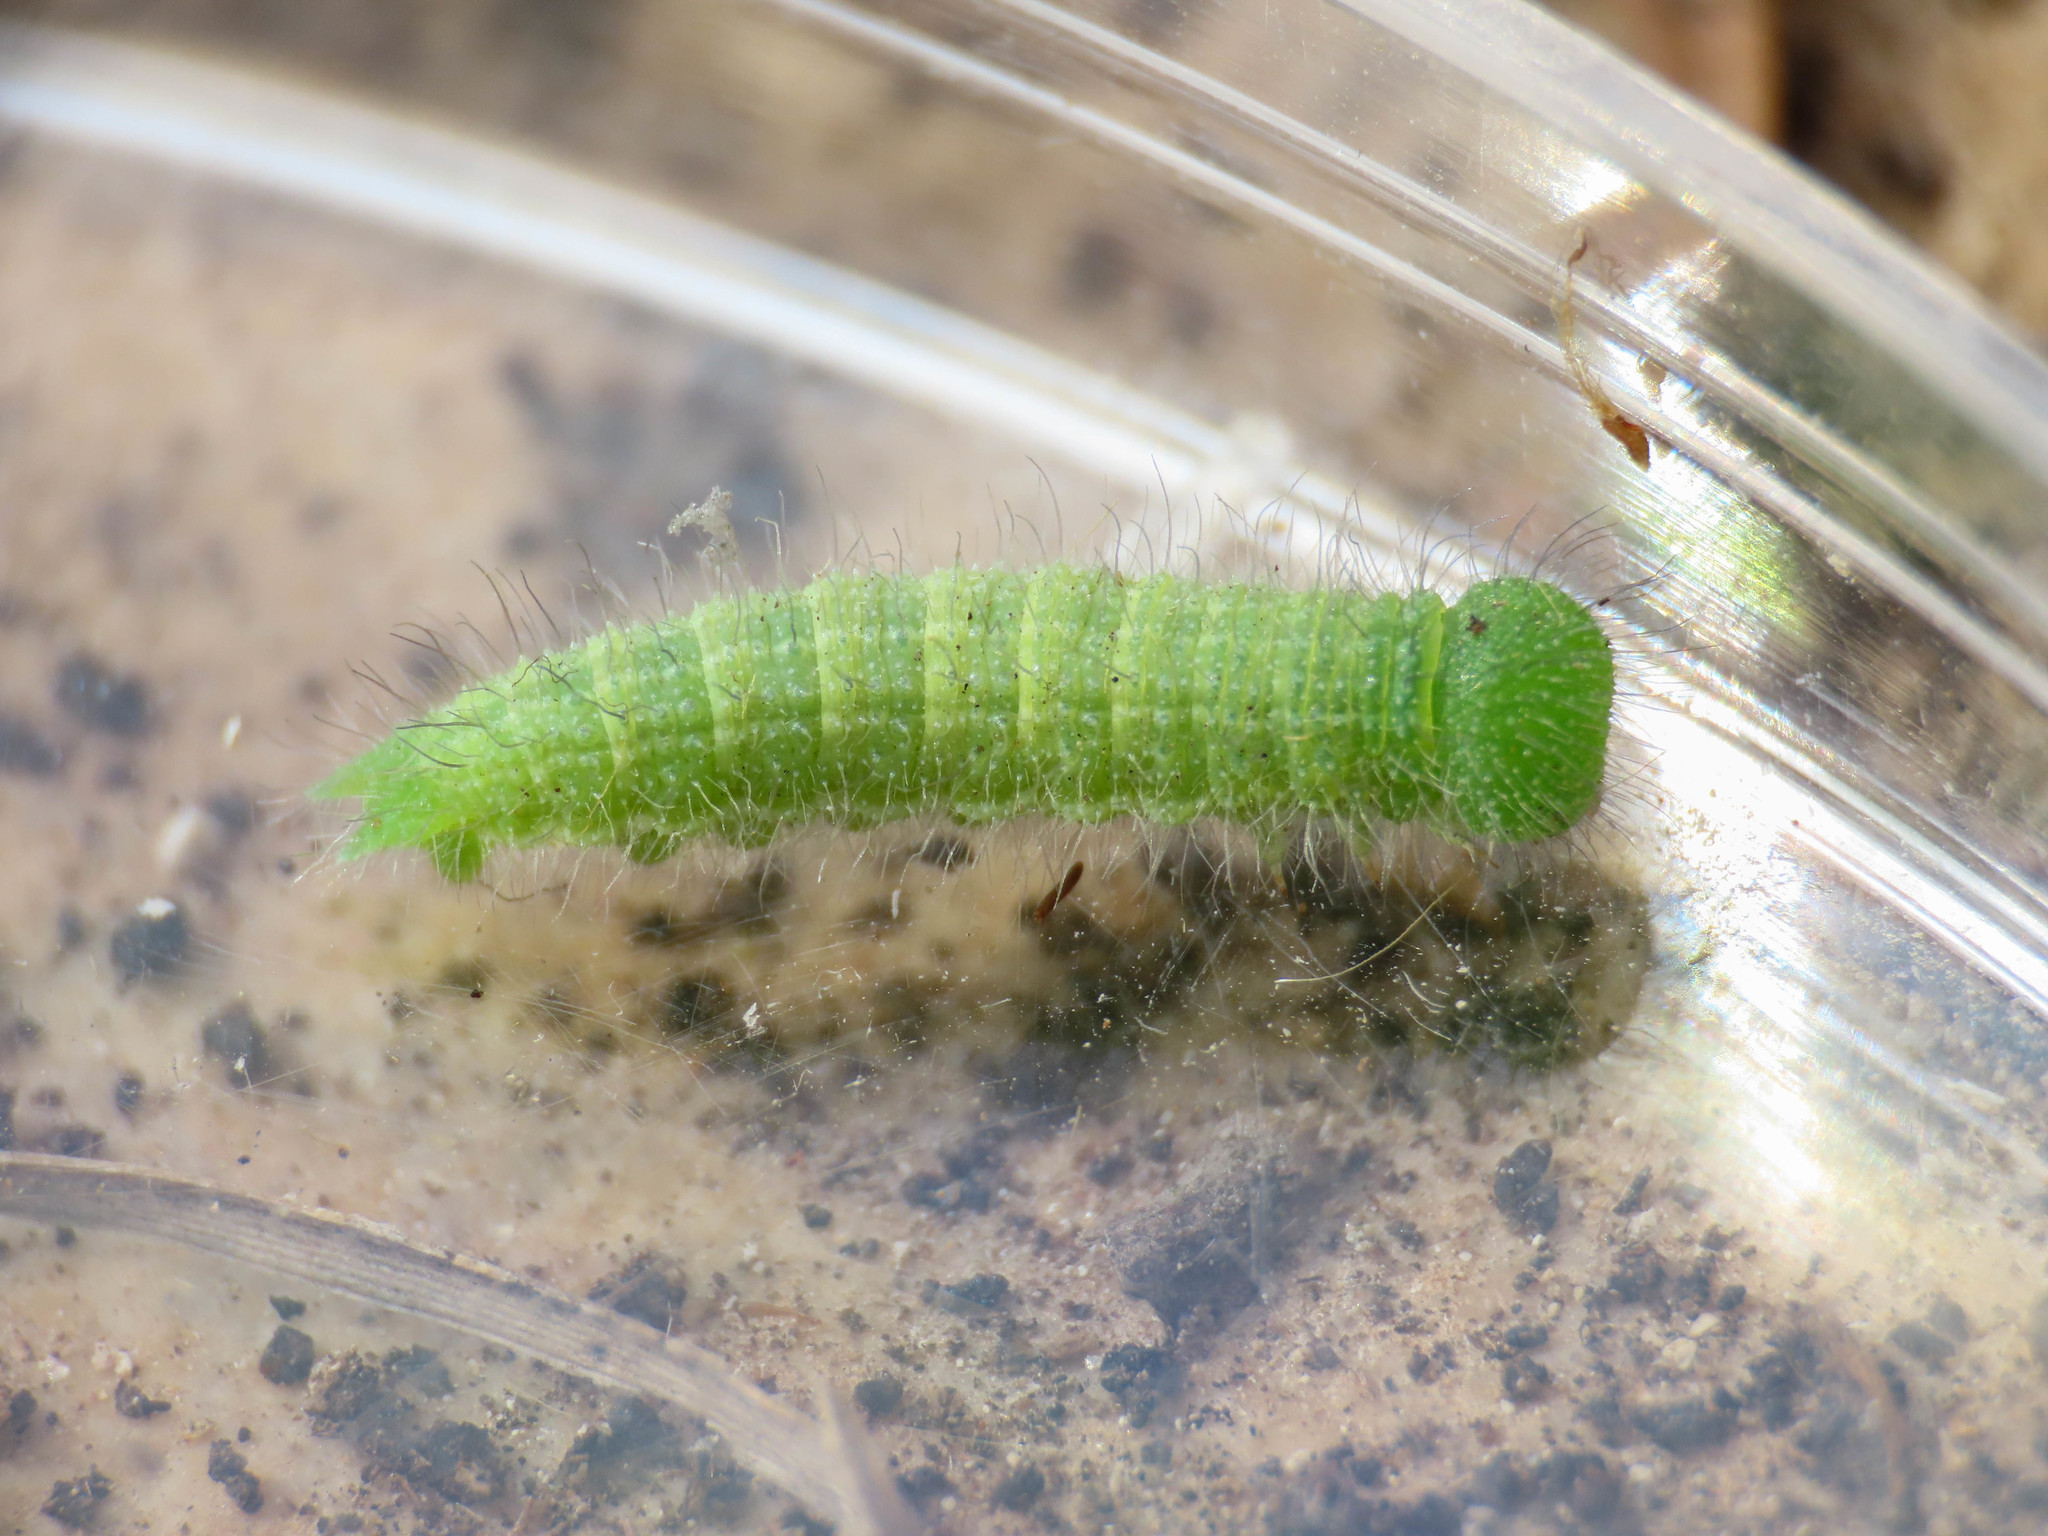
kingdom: Animalia
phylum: Arthropoda
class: Insecta
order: Lepidoptera
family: Nymphalidae
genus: Maniola
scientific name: Maniola jurtina
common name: Meadow brown
